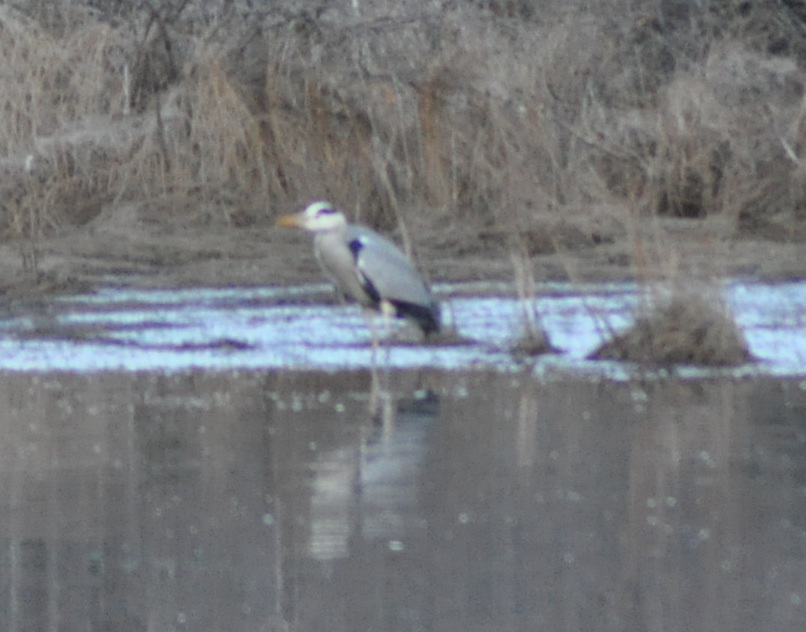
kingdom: Animalia
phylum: Chordata
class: Aves
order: Pelecaniformes
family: Ardeidae
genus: Ardea
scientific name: Ardea cinerea
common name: Grey heron
